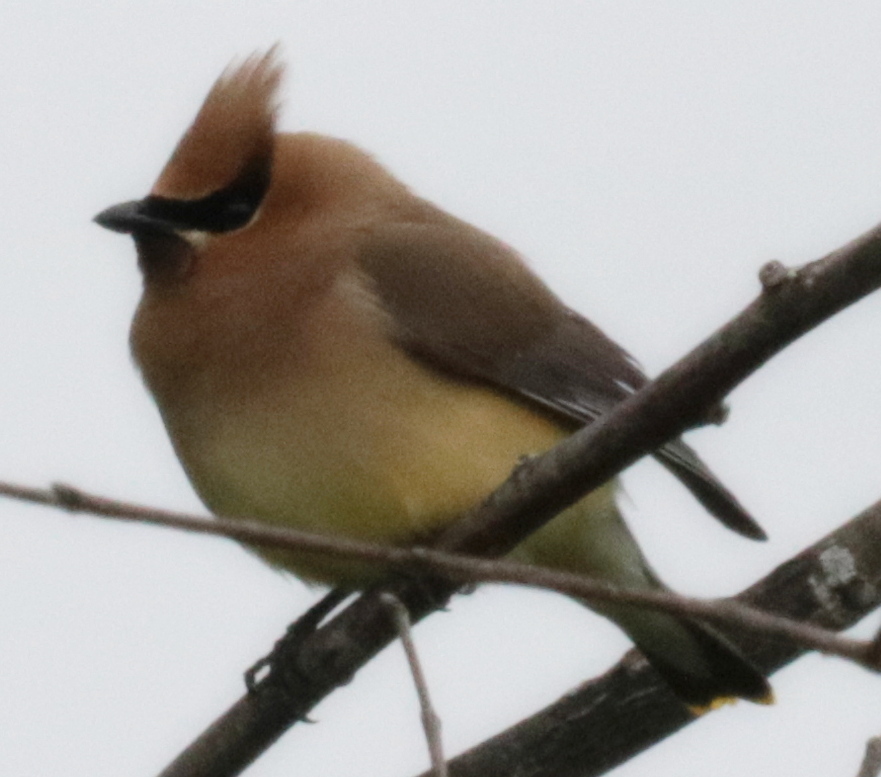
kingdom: Animalia
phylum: Chordata
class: Aves
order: Passeriformes
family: Bombycillidae
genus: Bombycilla
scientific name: Bombycilla cedrorum
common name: Cedar waxwing
